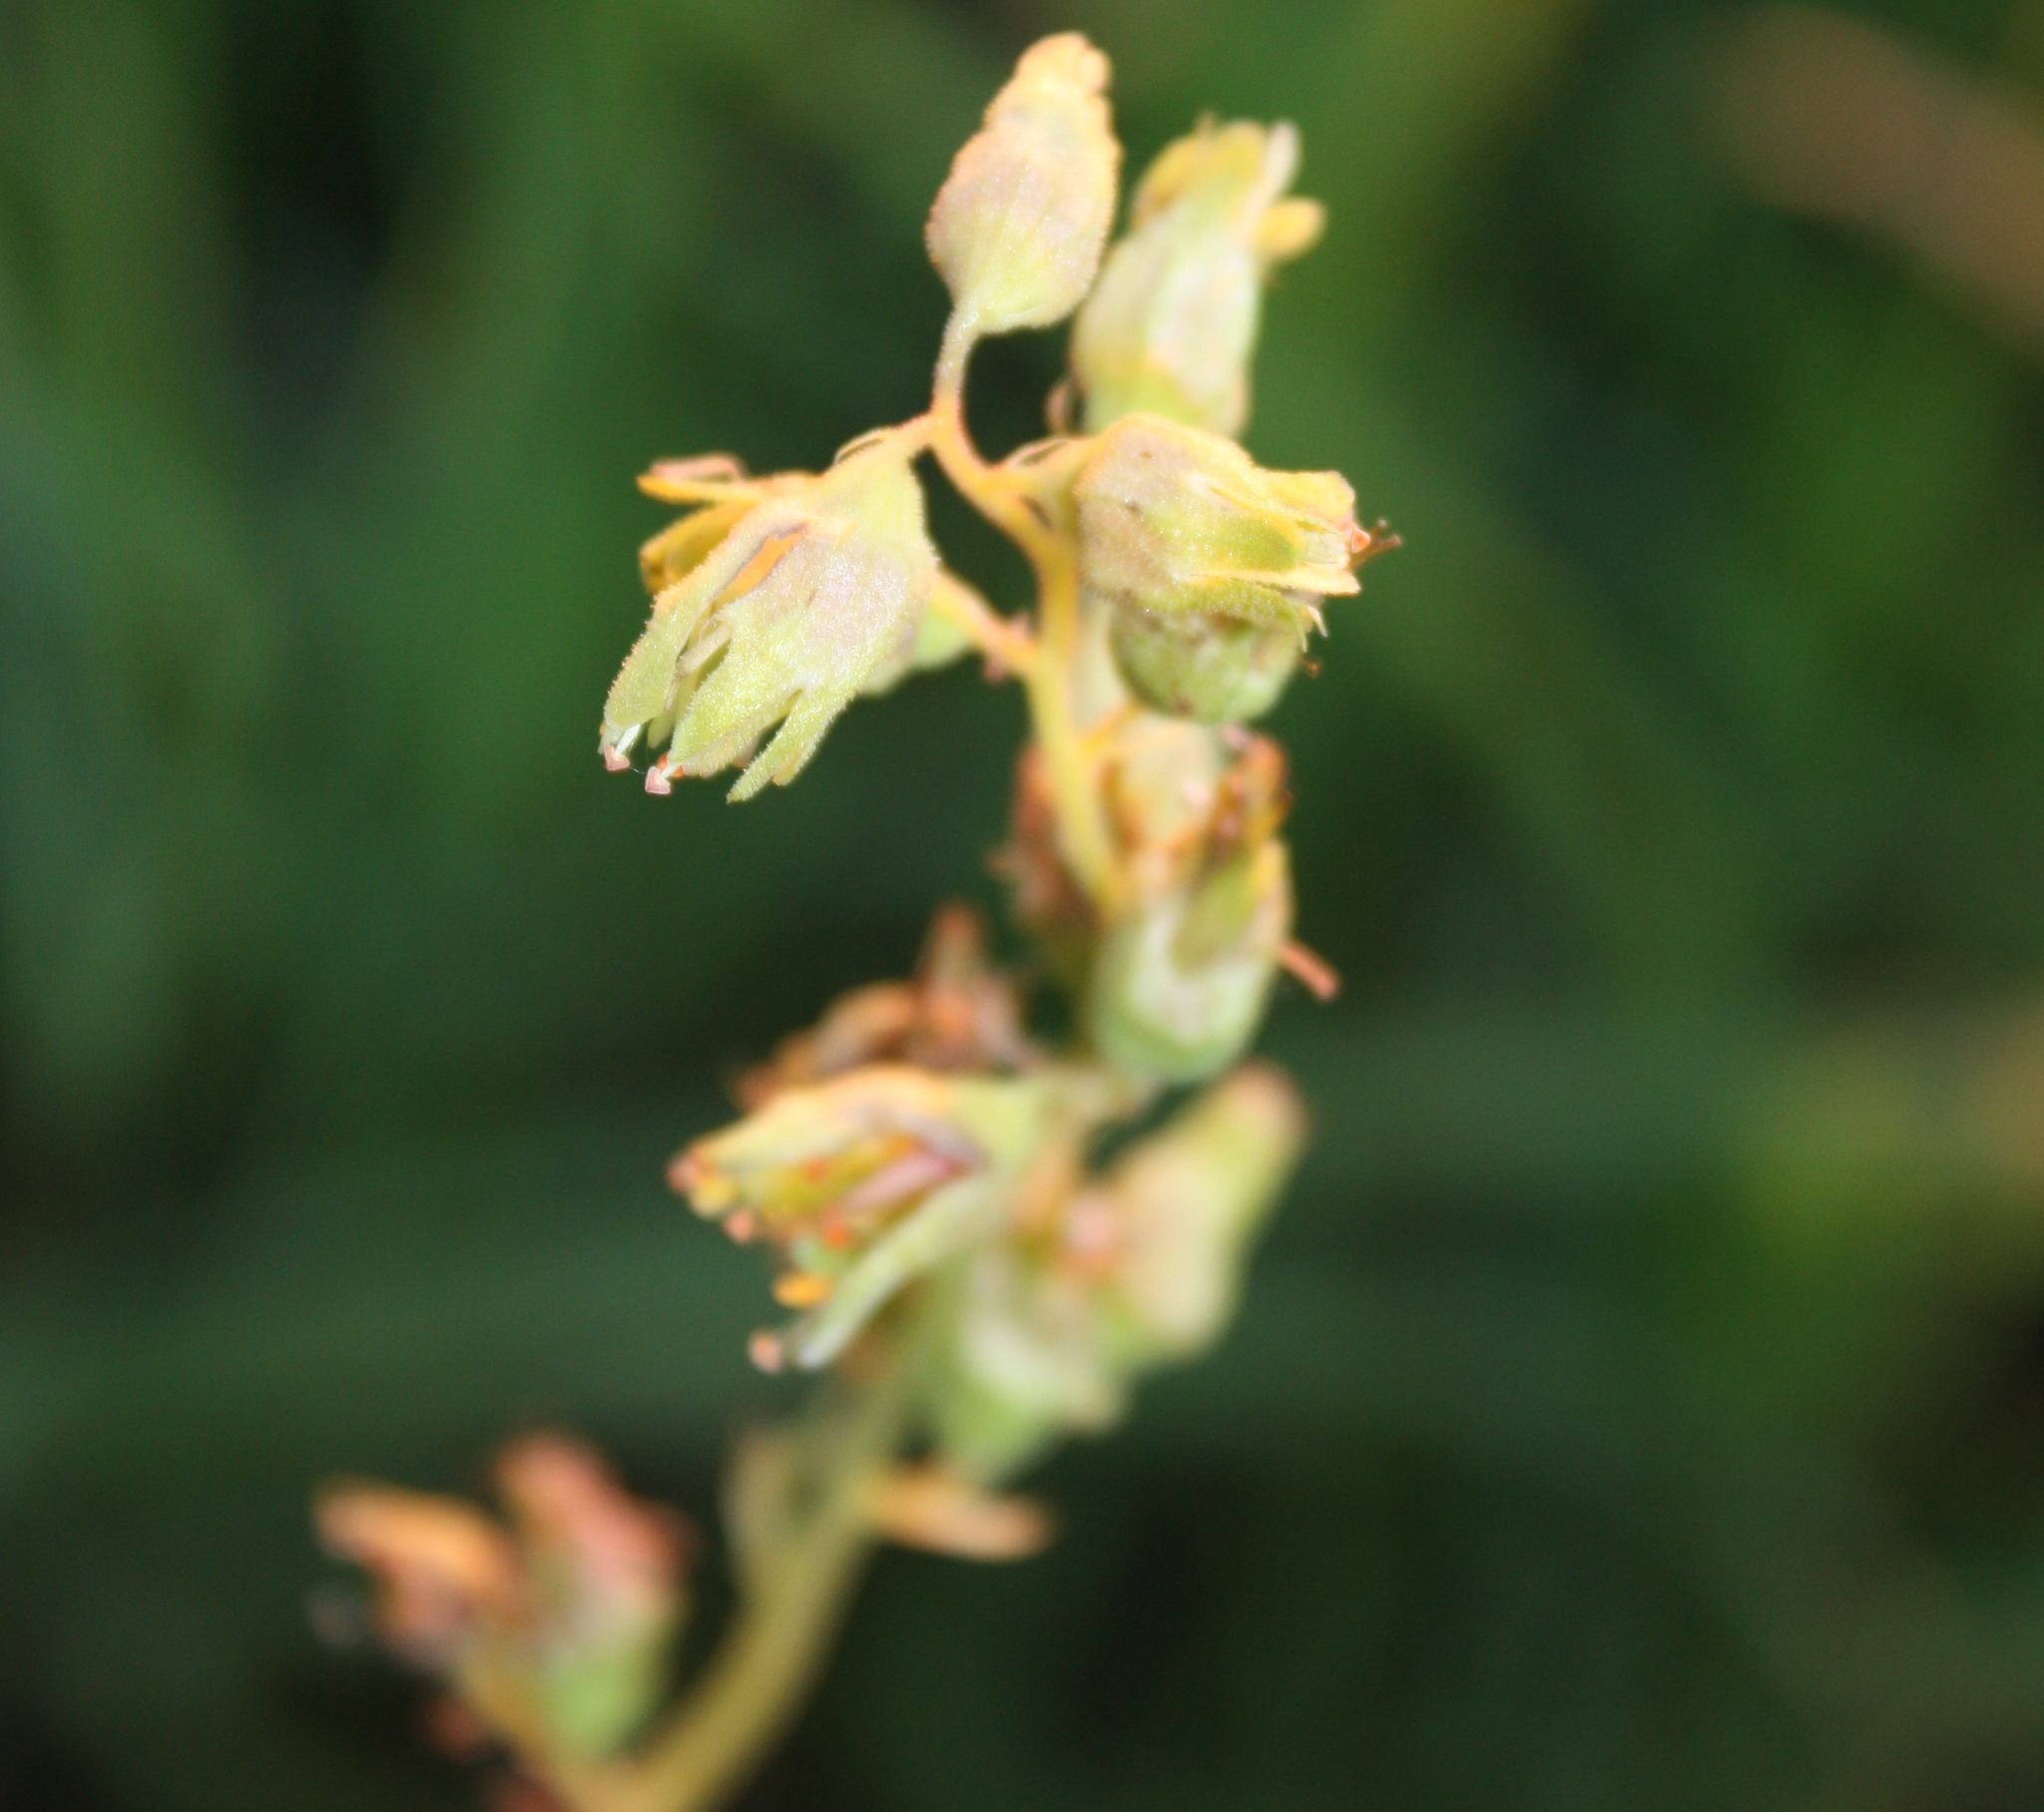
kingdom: Plantae
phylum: Tracheophyta
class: Magnoliopsida
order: Saxifragales
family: Saxifragaceae
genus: Heuchera
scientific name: Heuchera richardsonii
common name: Richardson's alumroot
